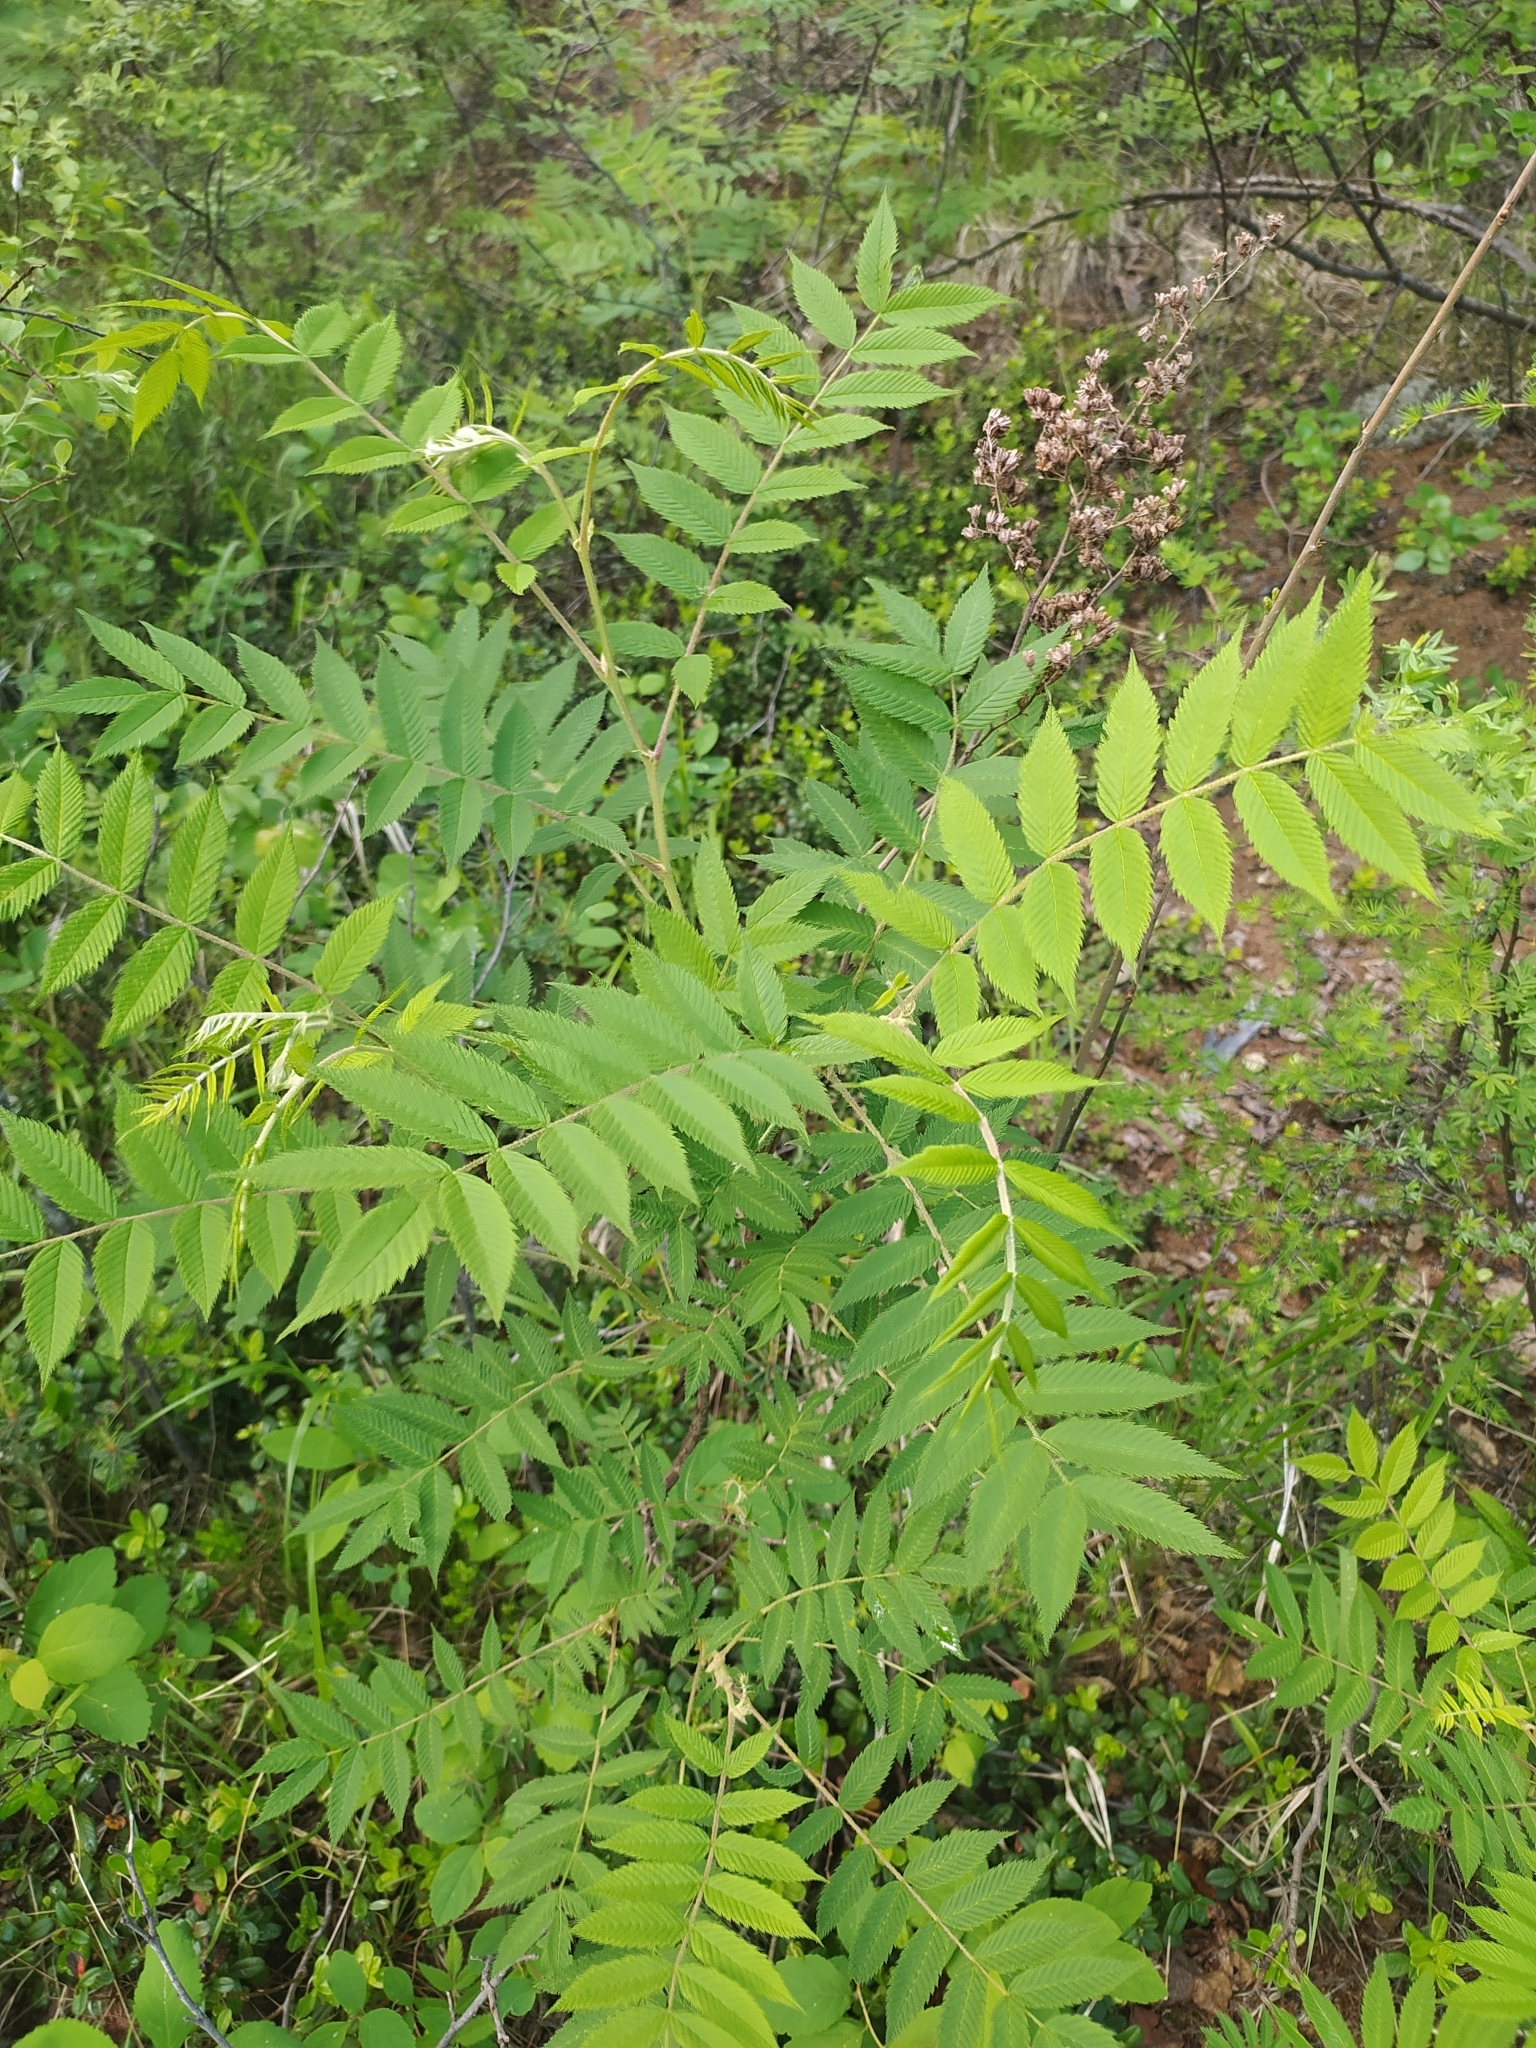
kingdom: Plantae
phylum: Tracheophyta
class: Magnoliopsida
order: Rosales
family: Rosaceae
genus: Sorbaria
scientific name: Sorbaria sorbifolia
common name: False spiraea
